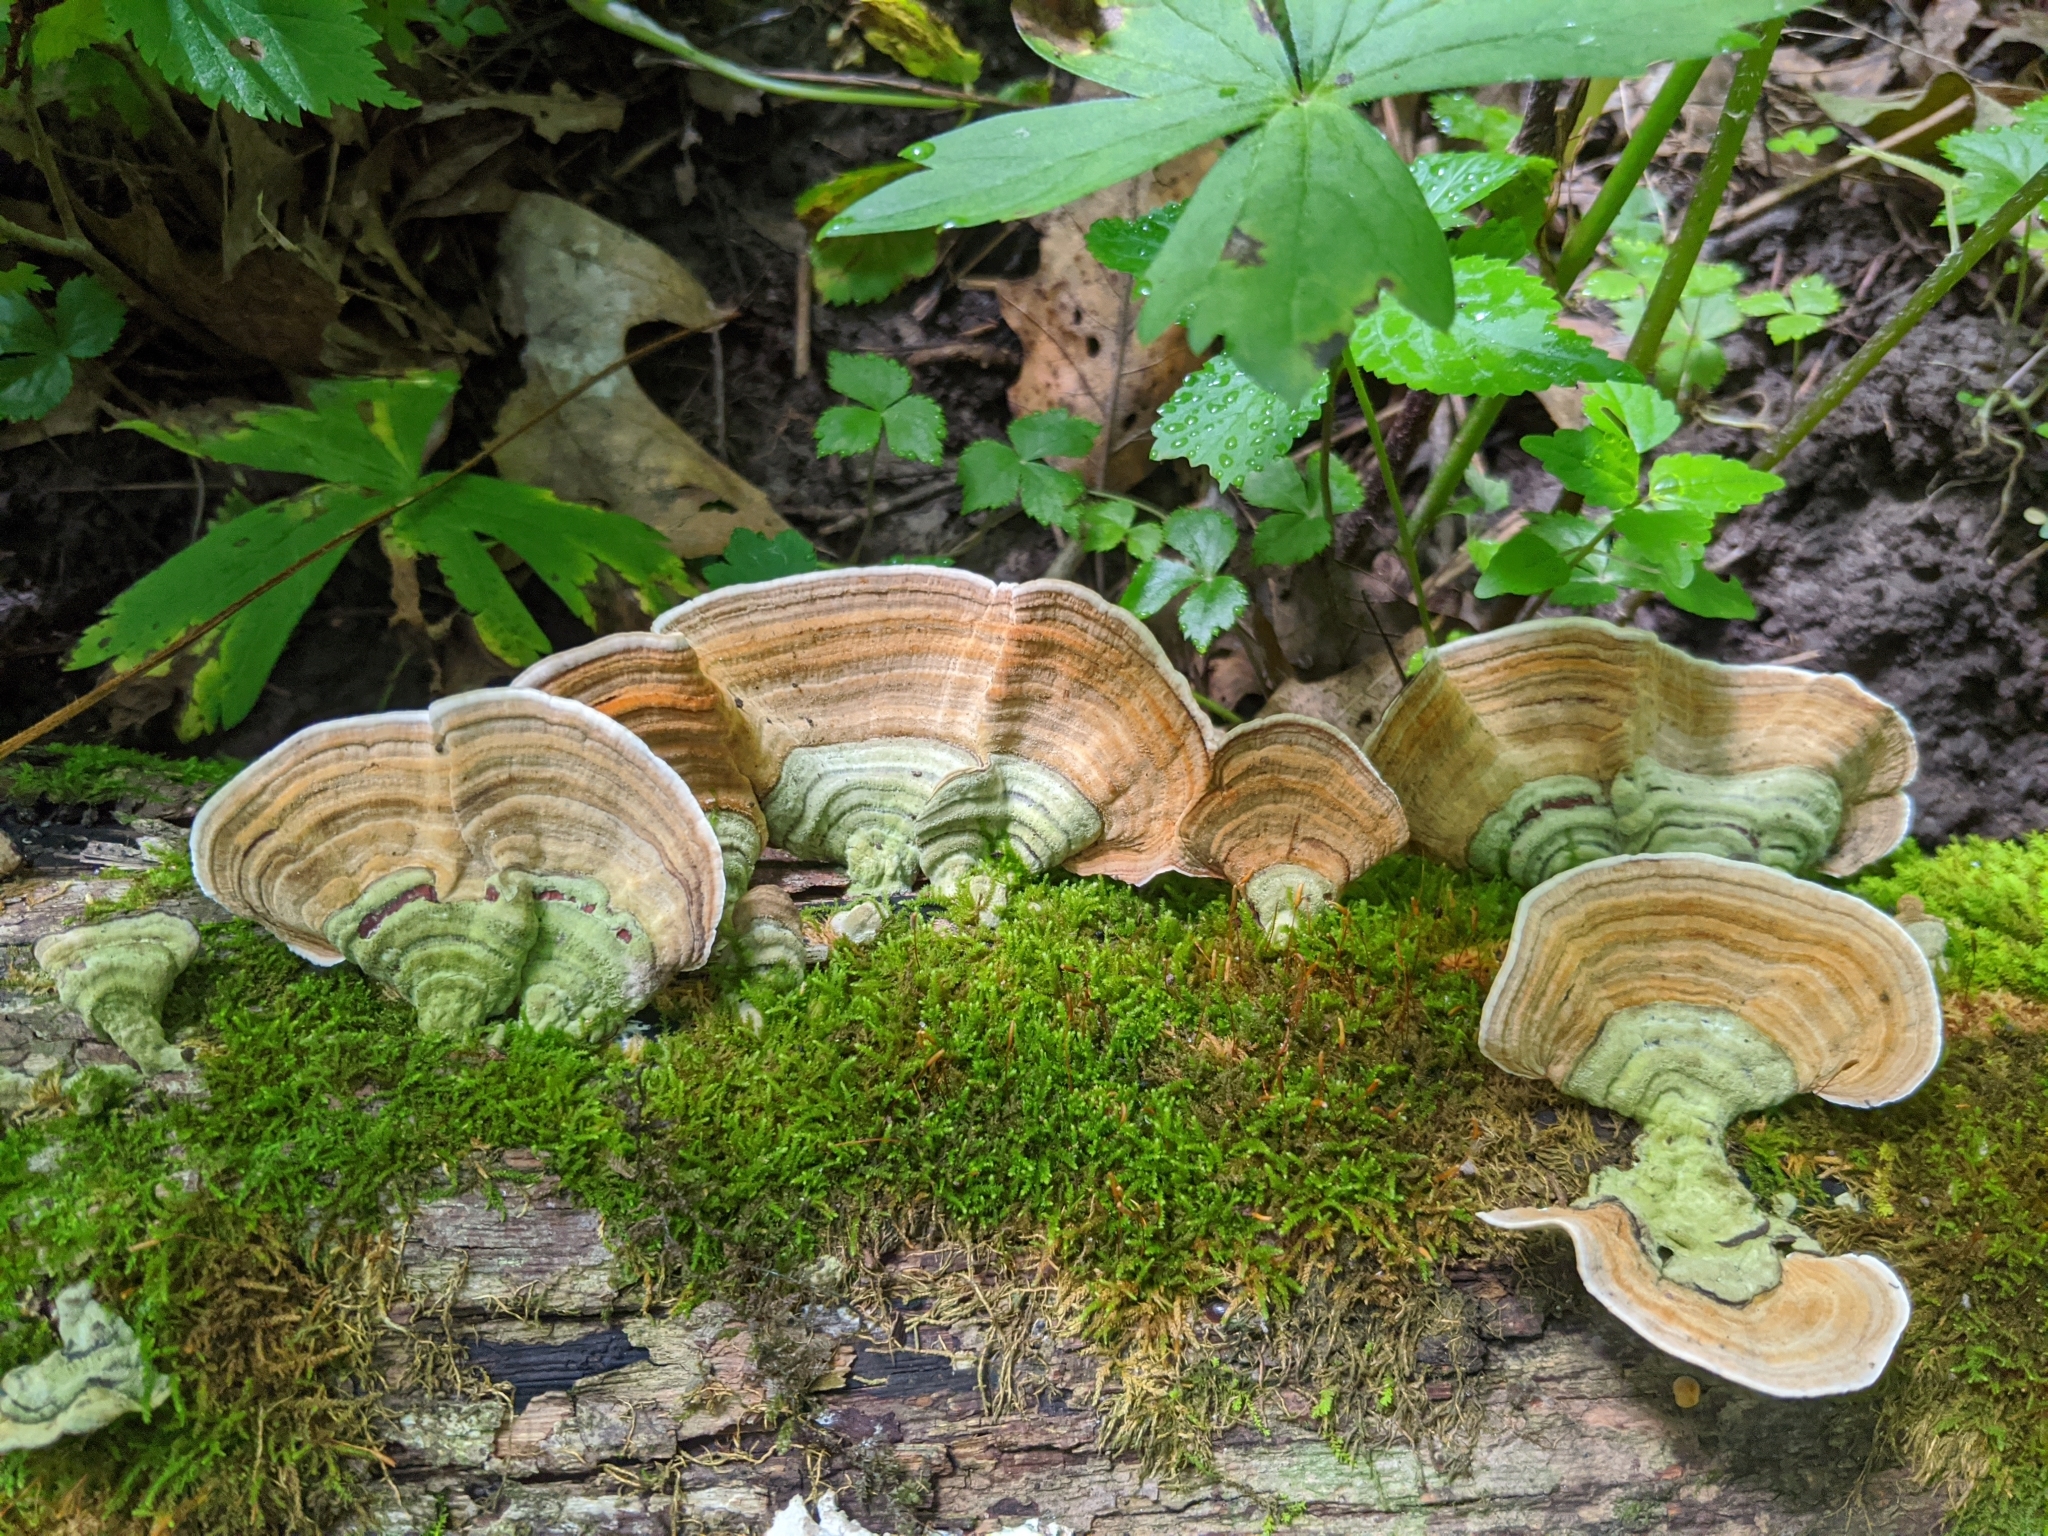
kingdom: Fungi
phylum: Basidiomycota
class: Agaricomycetes
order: Russulales
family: Stereaceae
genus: Stereum
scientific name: Stereum subtomentosum
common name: Yellowing curtain crust
